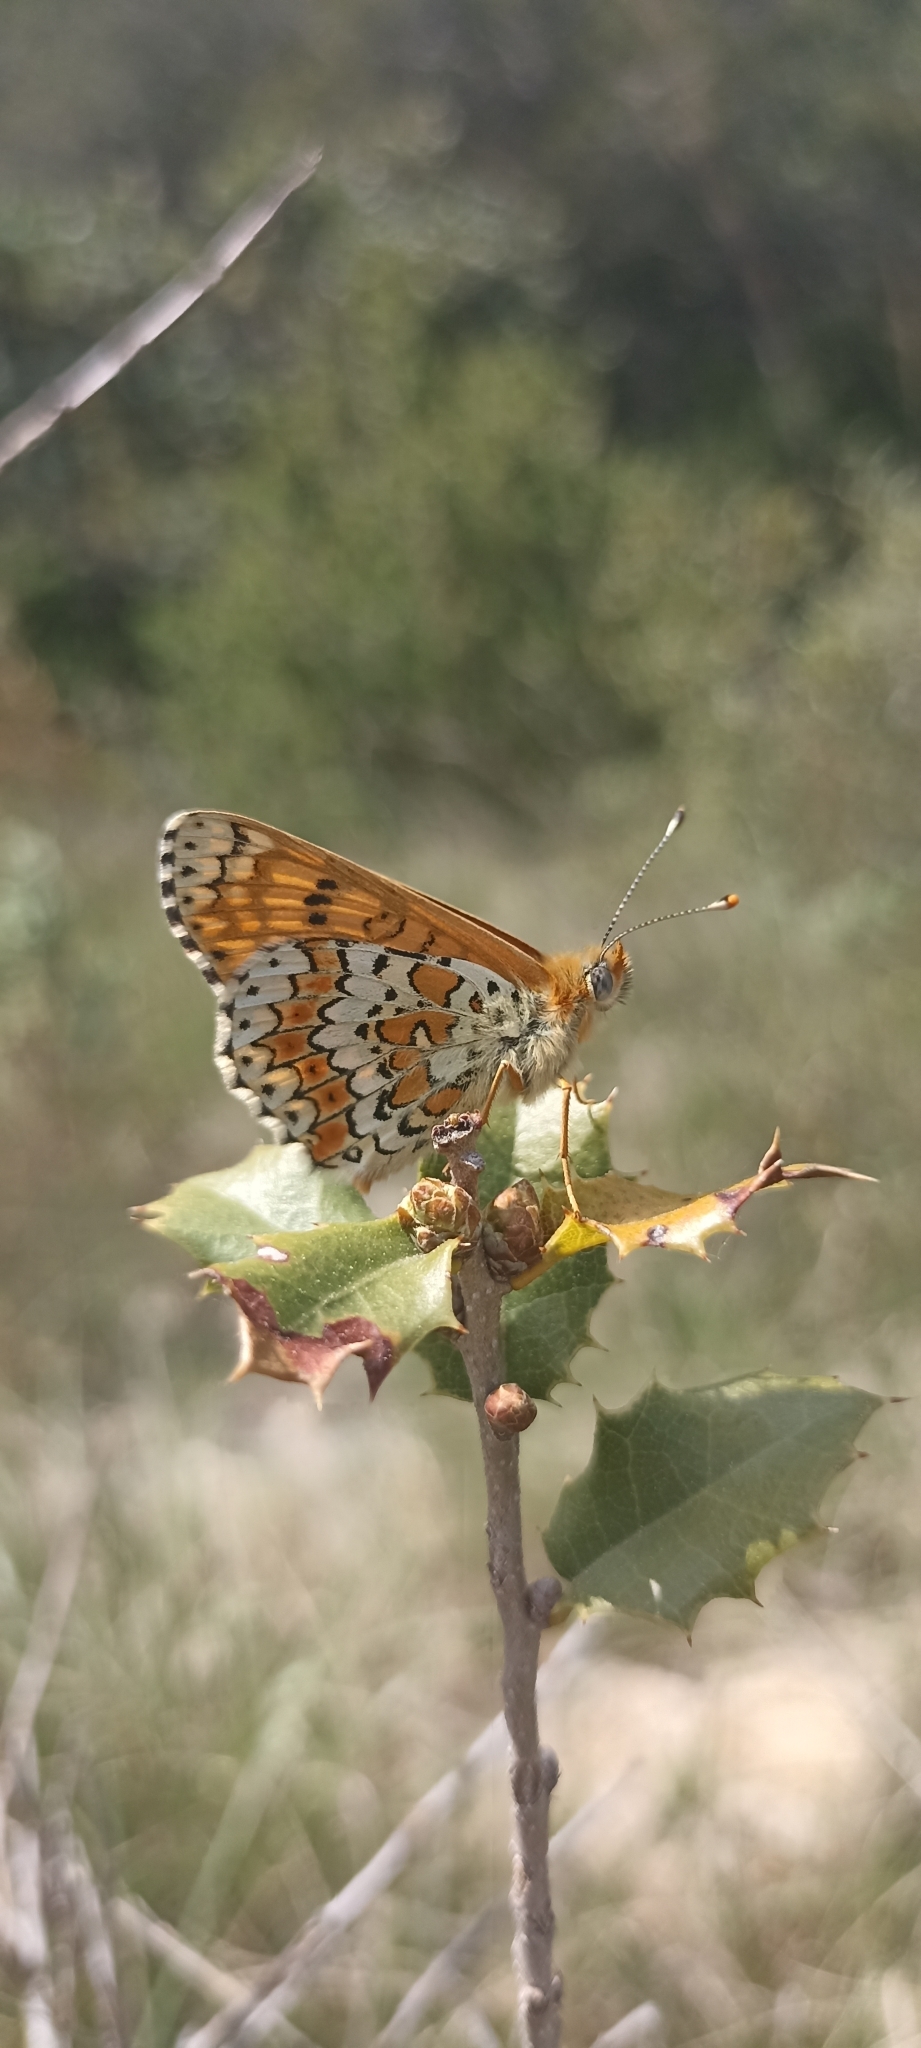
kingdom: Animalia
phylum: Arthropoda
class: Insecta
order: Lepidoptera
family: Nymphalidae
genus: Melitaea
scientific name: Melitaea cinxia
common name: Glanville fritillary
